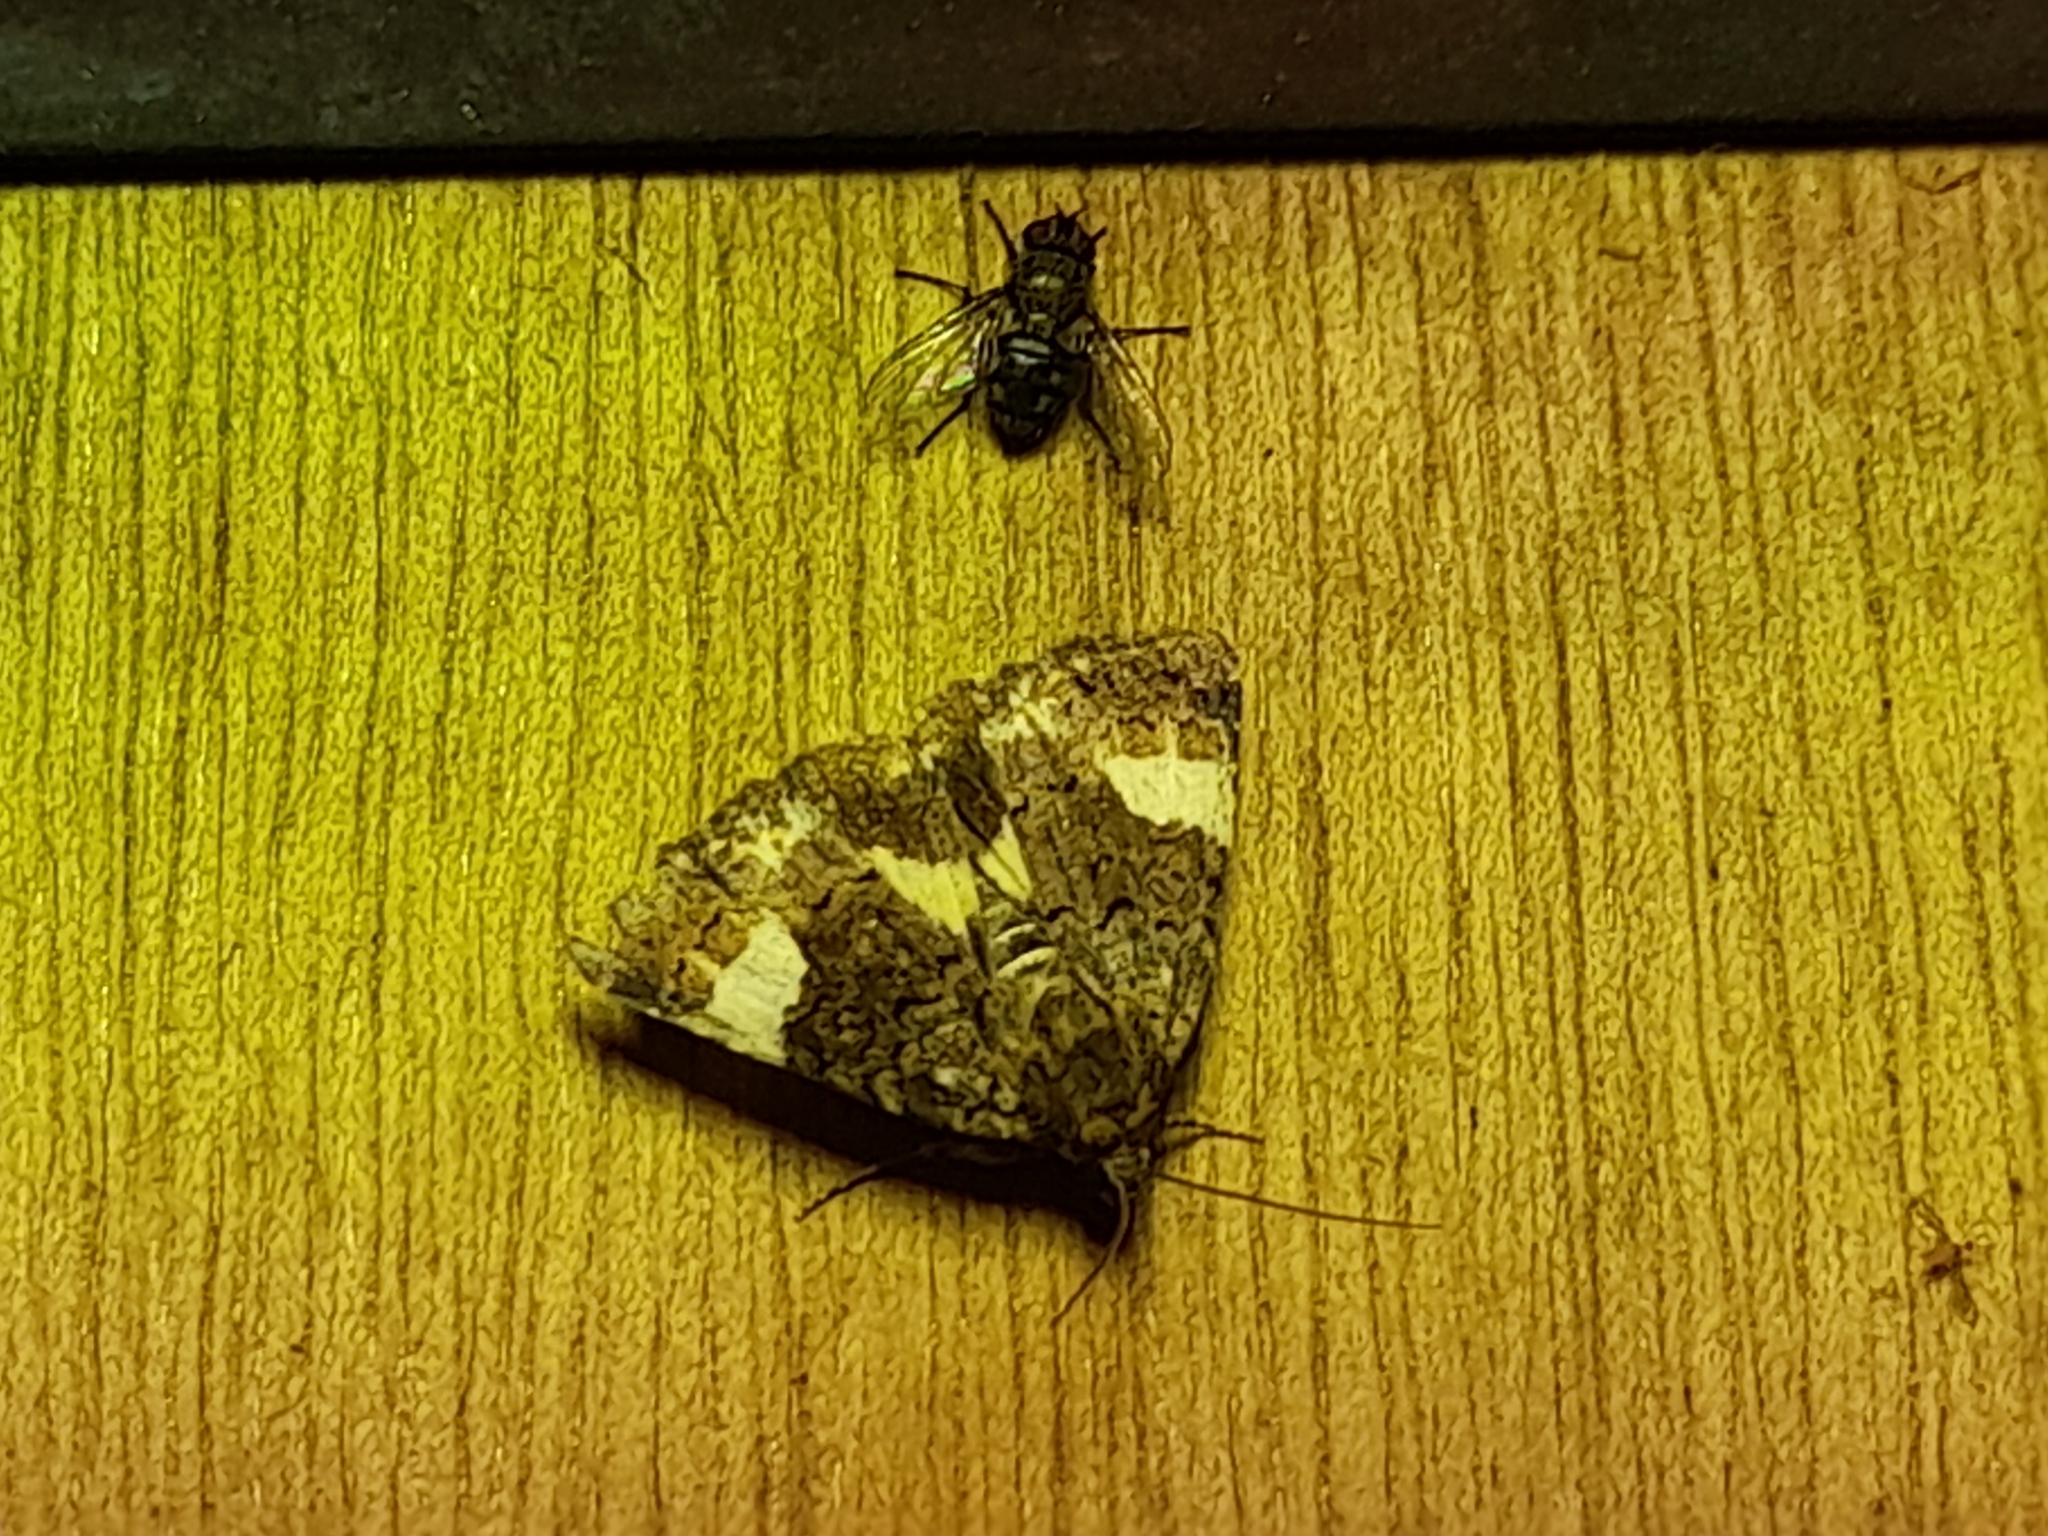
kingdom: Animalia
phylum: Arthropoda
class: Insecta
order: Lepidoptera
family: Erebidae
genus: Tyta
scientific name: Tyta luctuosa
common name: Four-spotted
